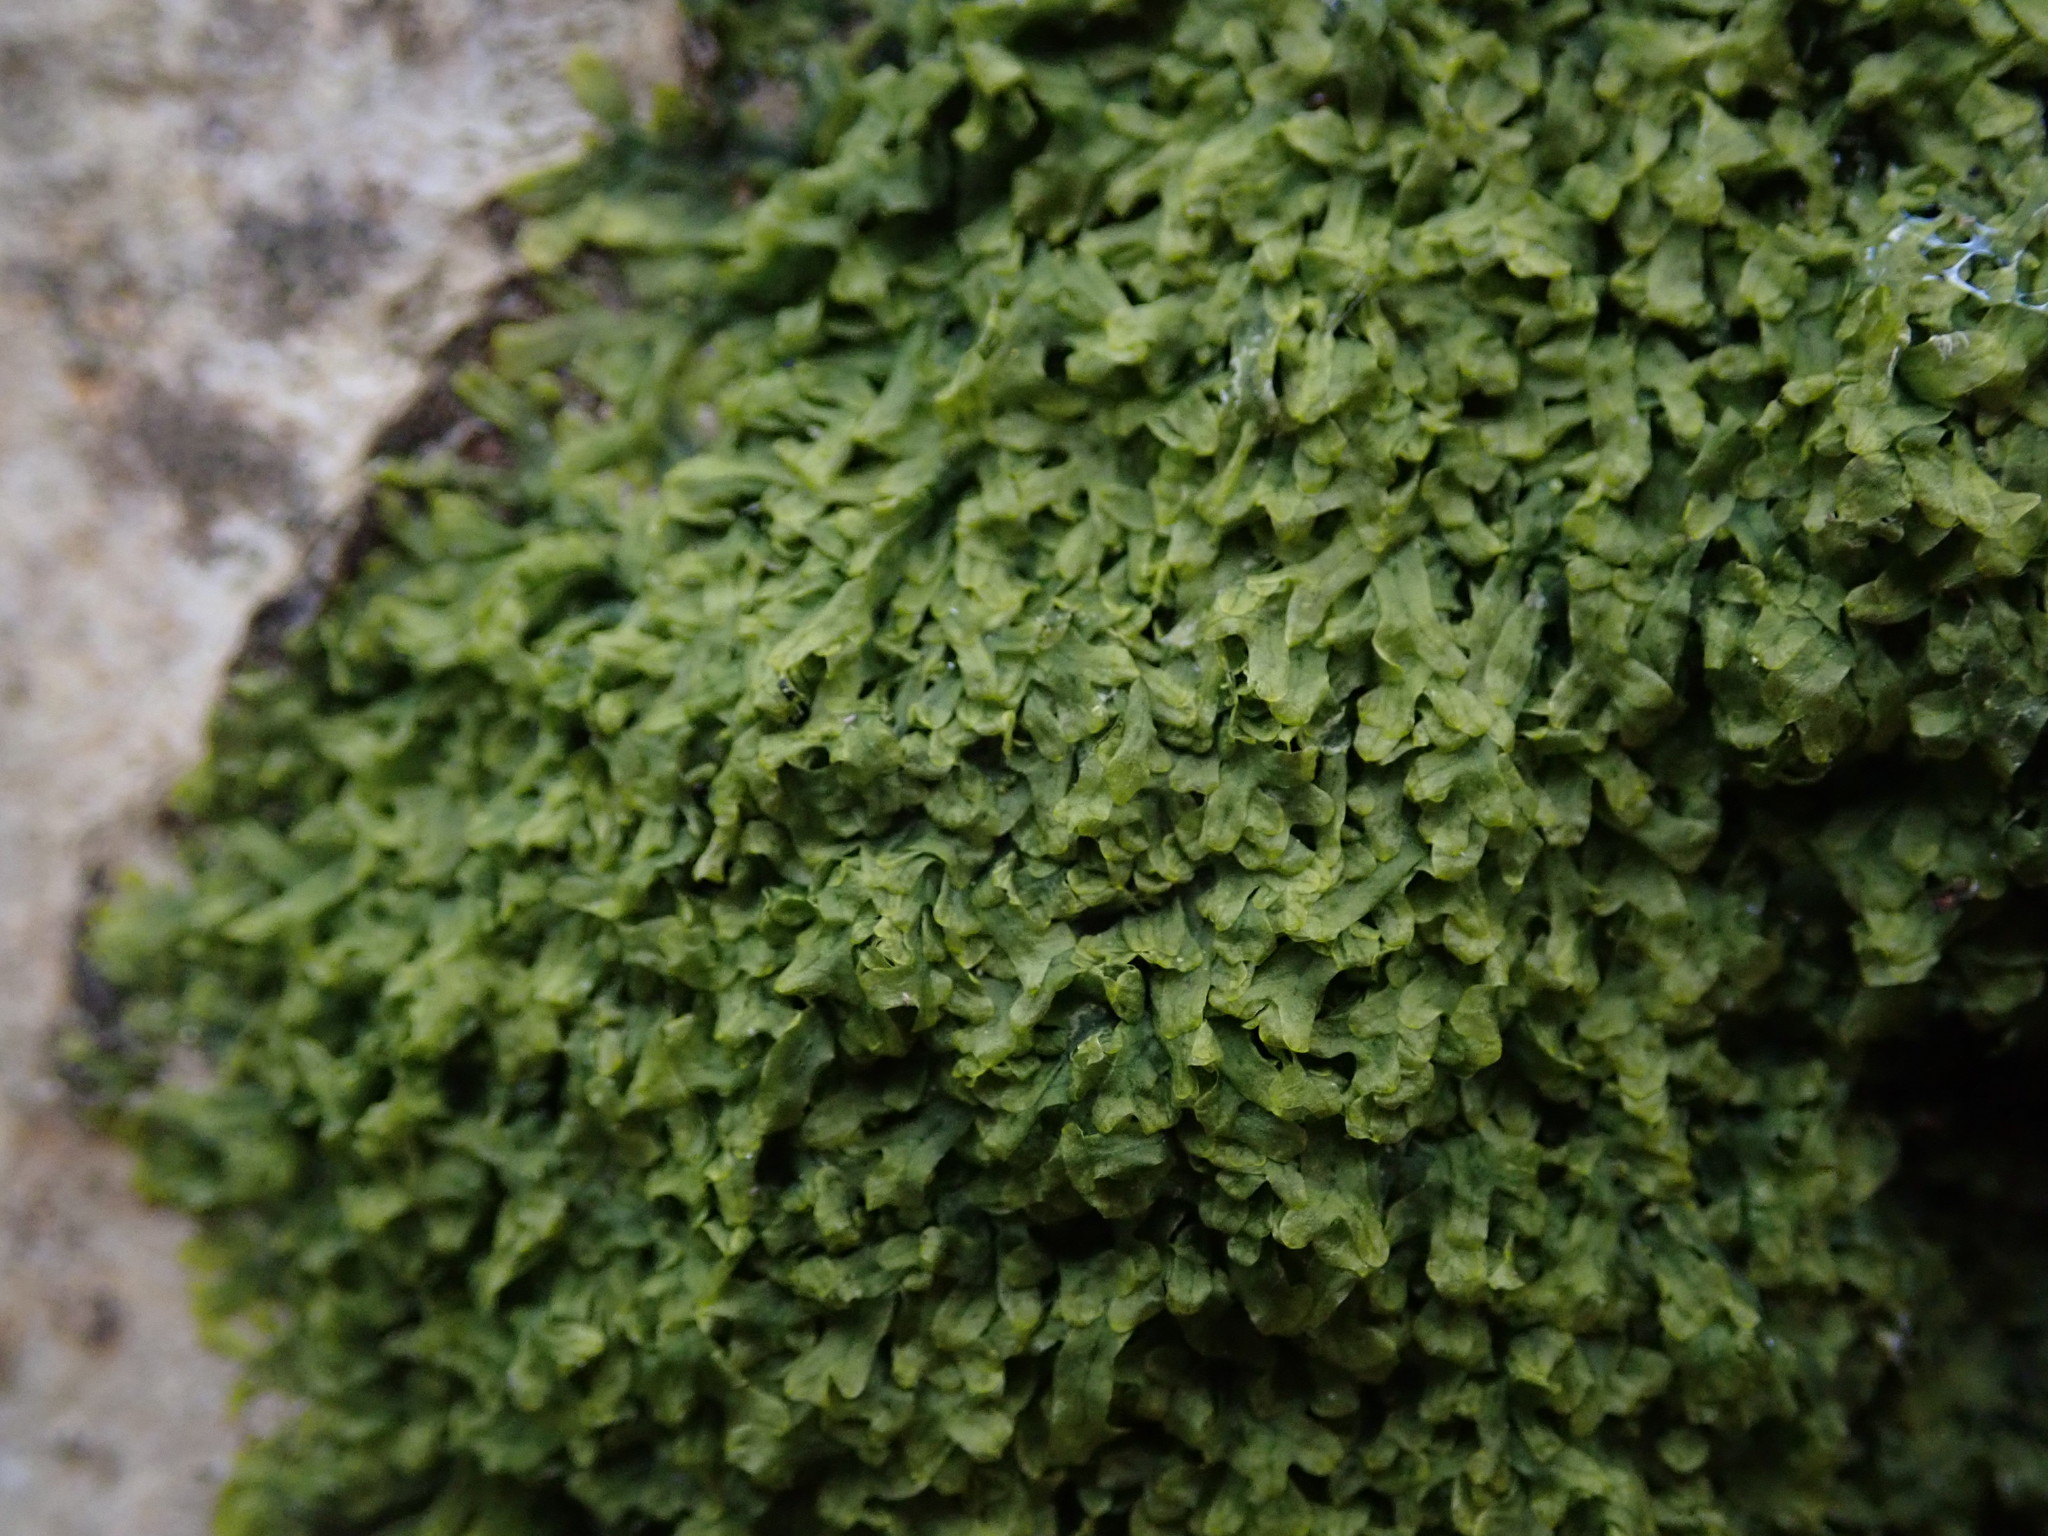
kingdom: Plantae
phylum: Marchantiophyta
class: Jungermanniopsida
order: Metzgeriales
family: Metzgeriaceae
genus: Metzgeria
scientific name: Metzgeria furcata
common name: Forked veilwort
